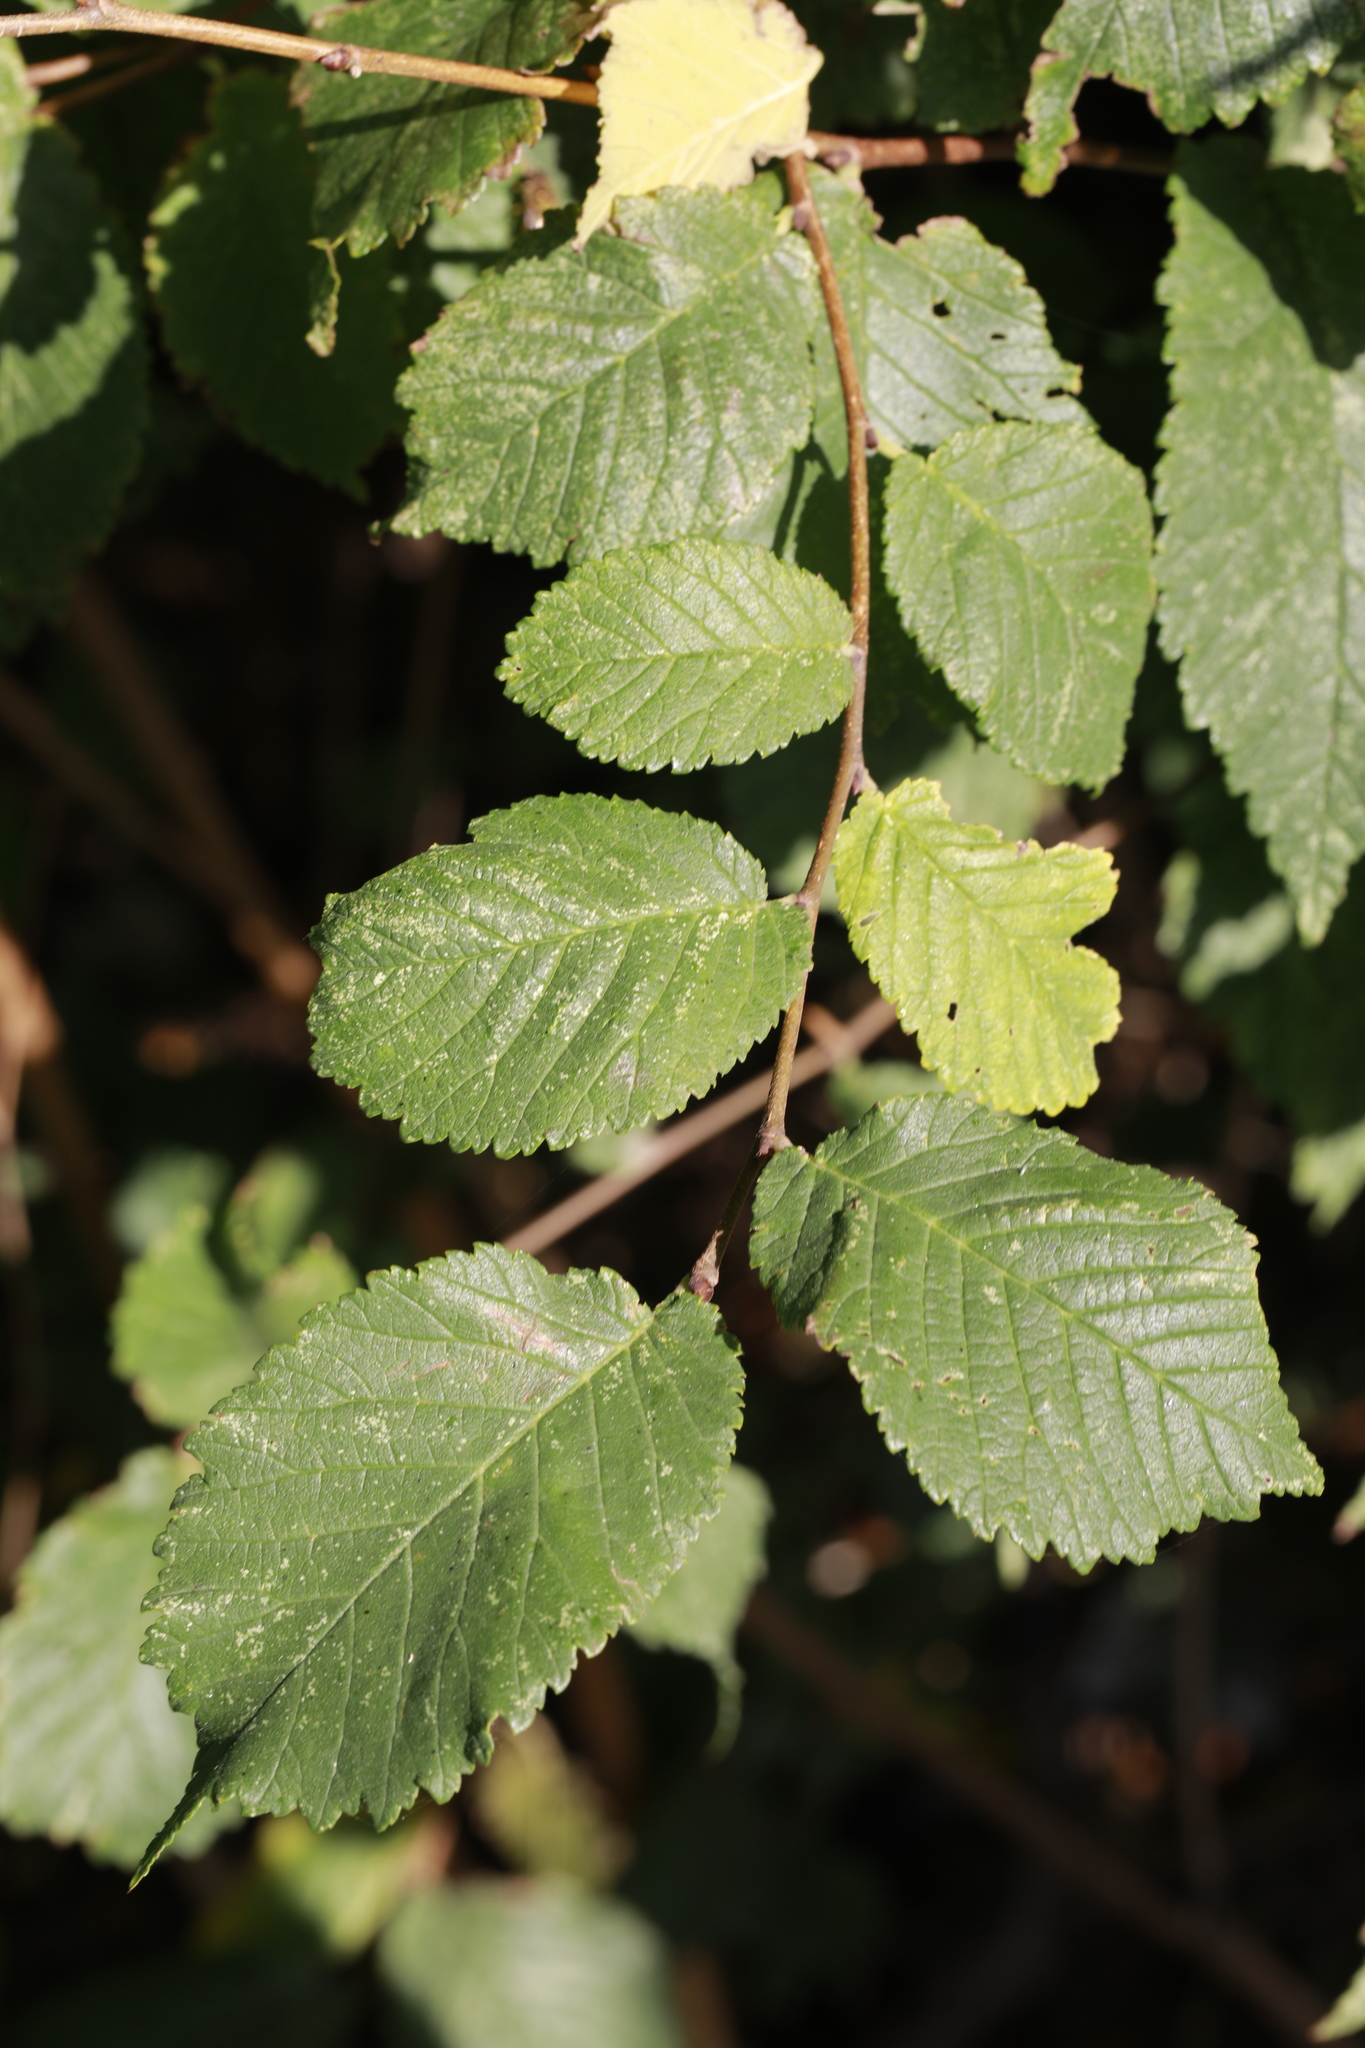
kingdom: Plantae
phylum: Tracheophyta
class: Magnoliopsida
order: Rosales
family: Ulmaceae
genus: Ulmus
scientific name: Ulmus glabra
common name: Wych elm
